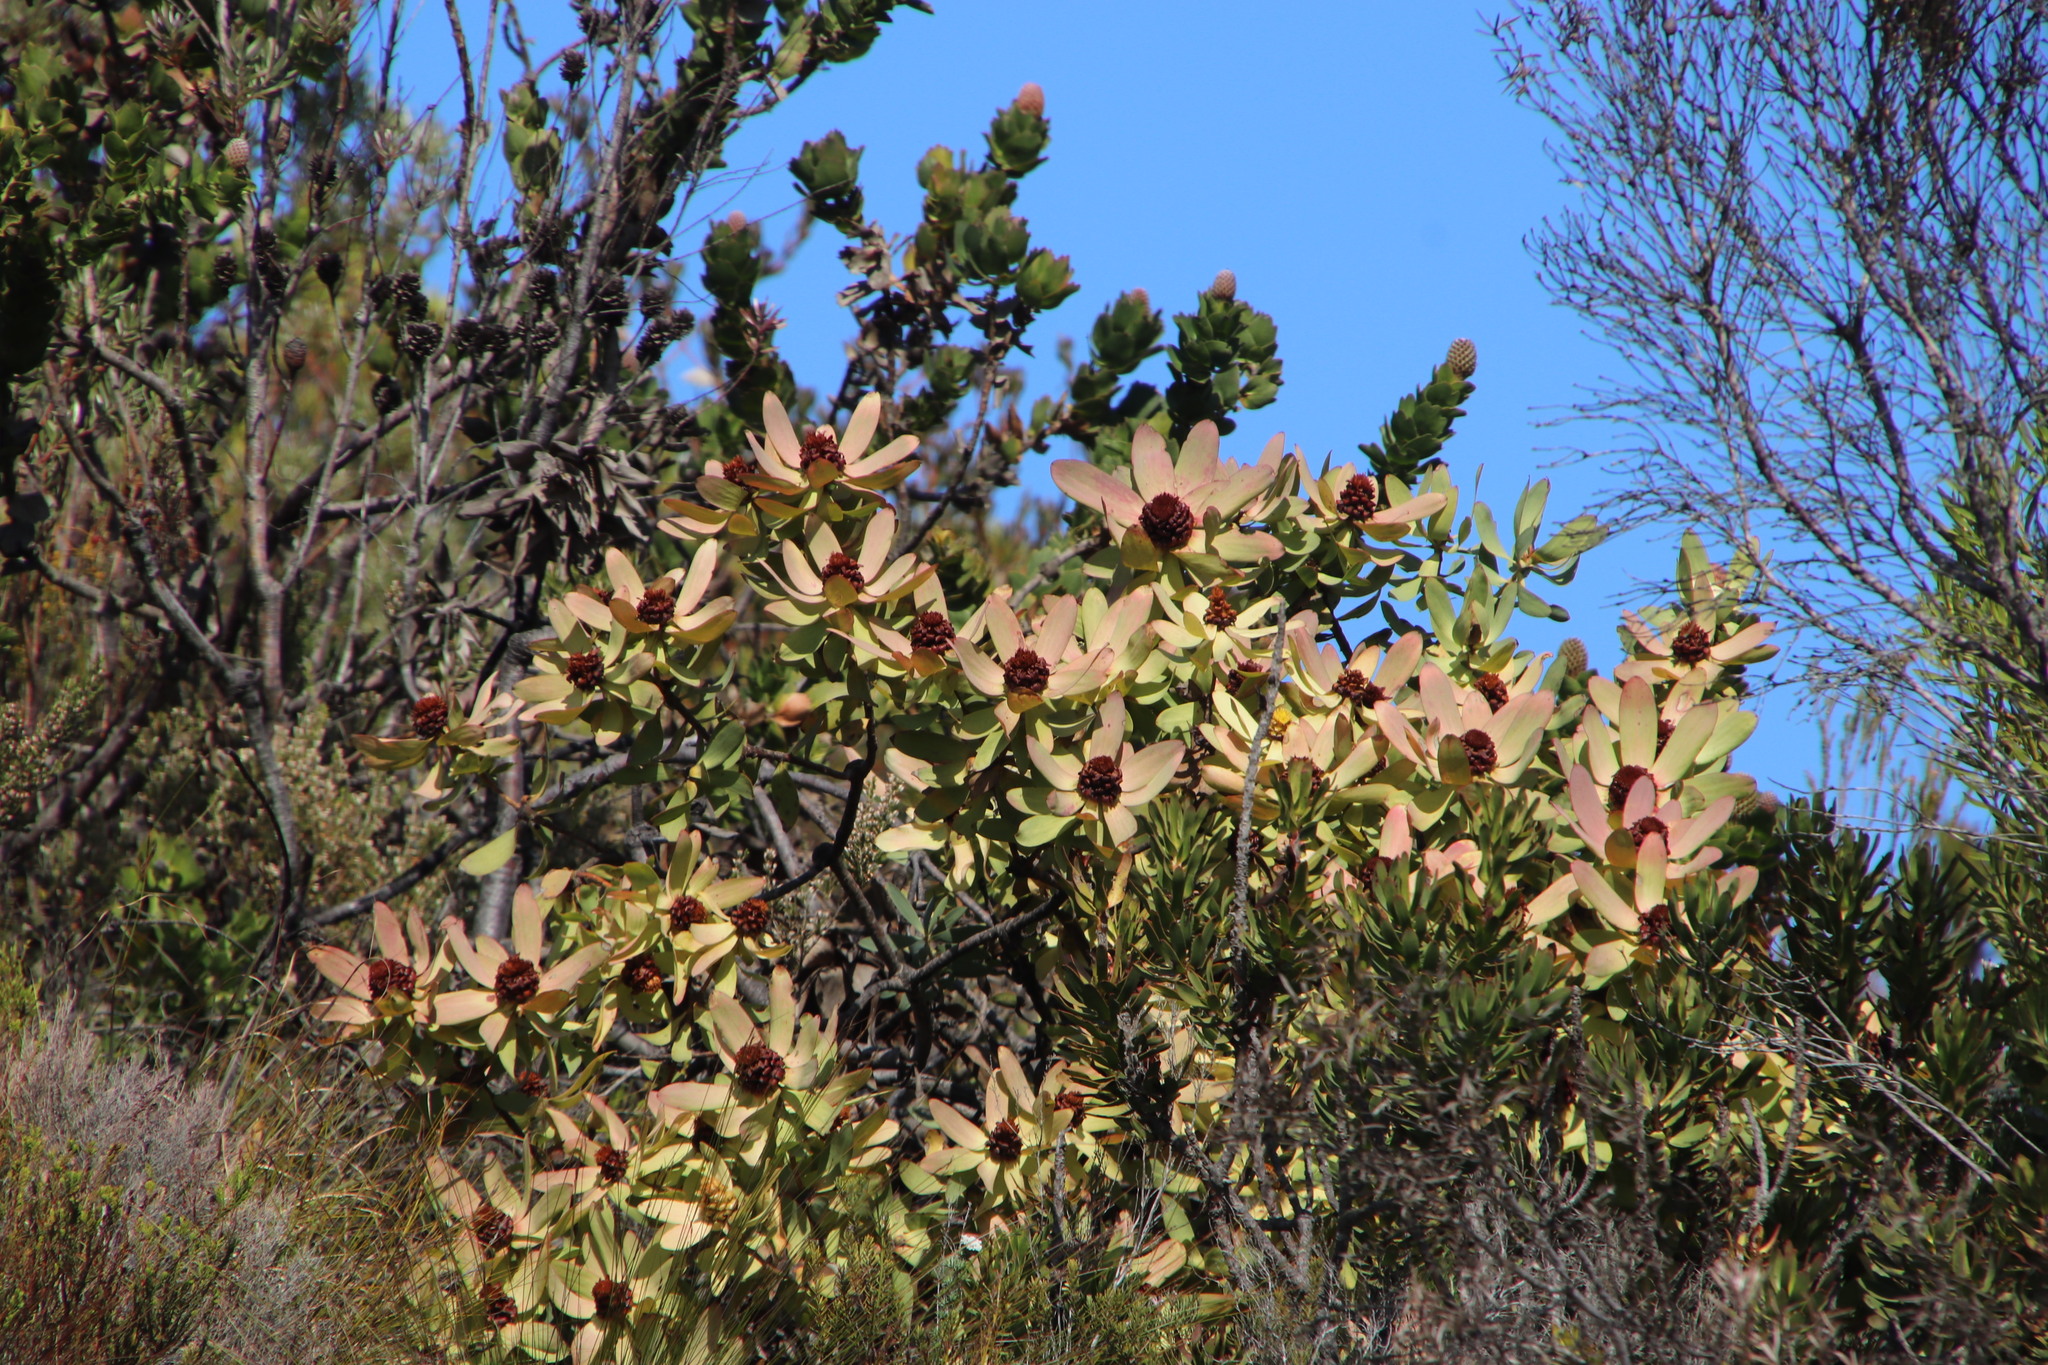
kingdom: Plantae
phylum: Tracheophyta
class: Magnoliopsida
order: Proteales
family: Proteaceae
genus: Leucadendron
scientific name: Leucadendron tinctum
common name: Spicy conebush
